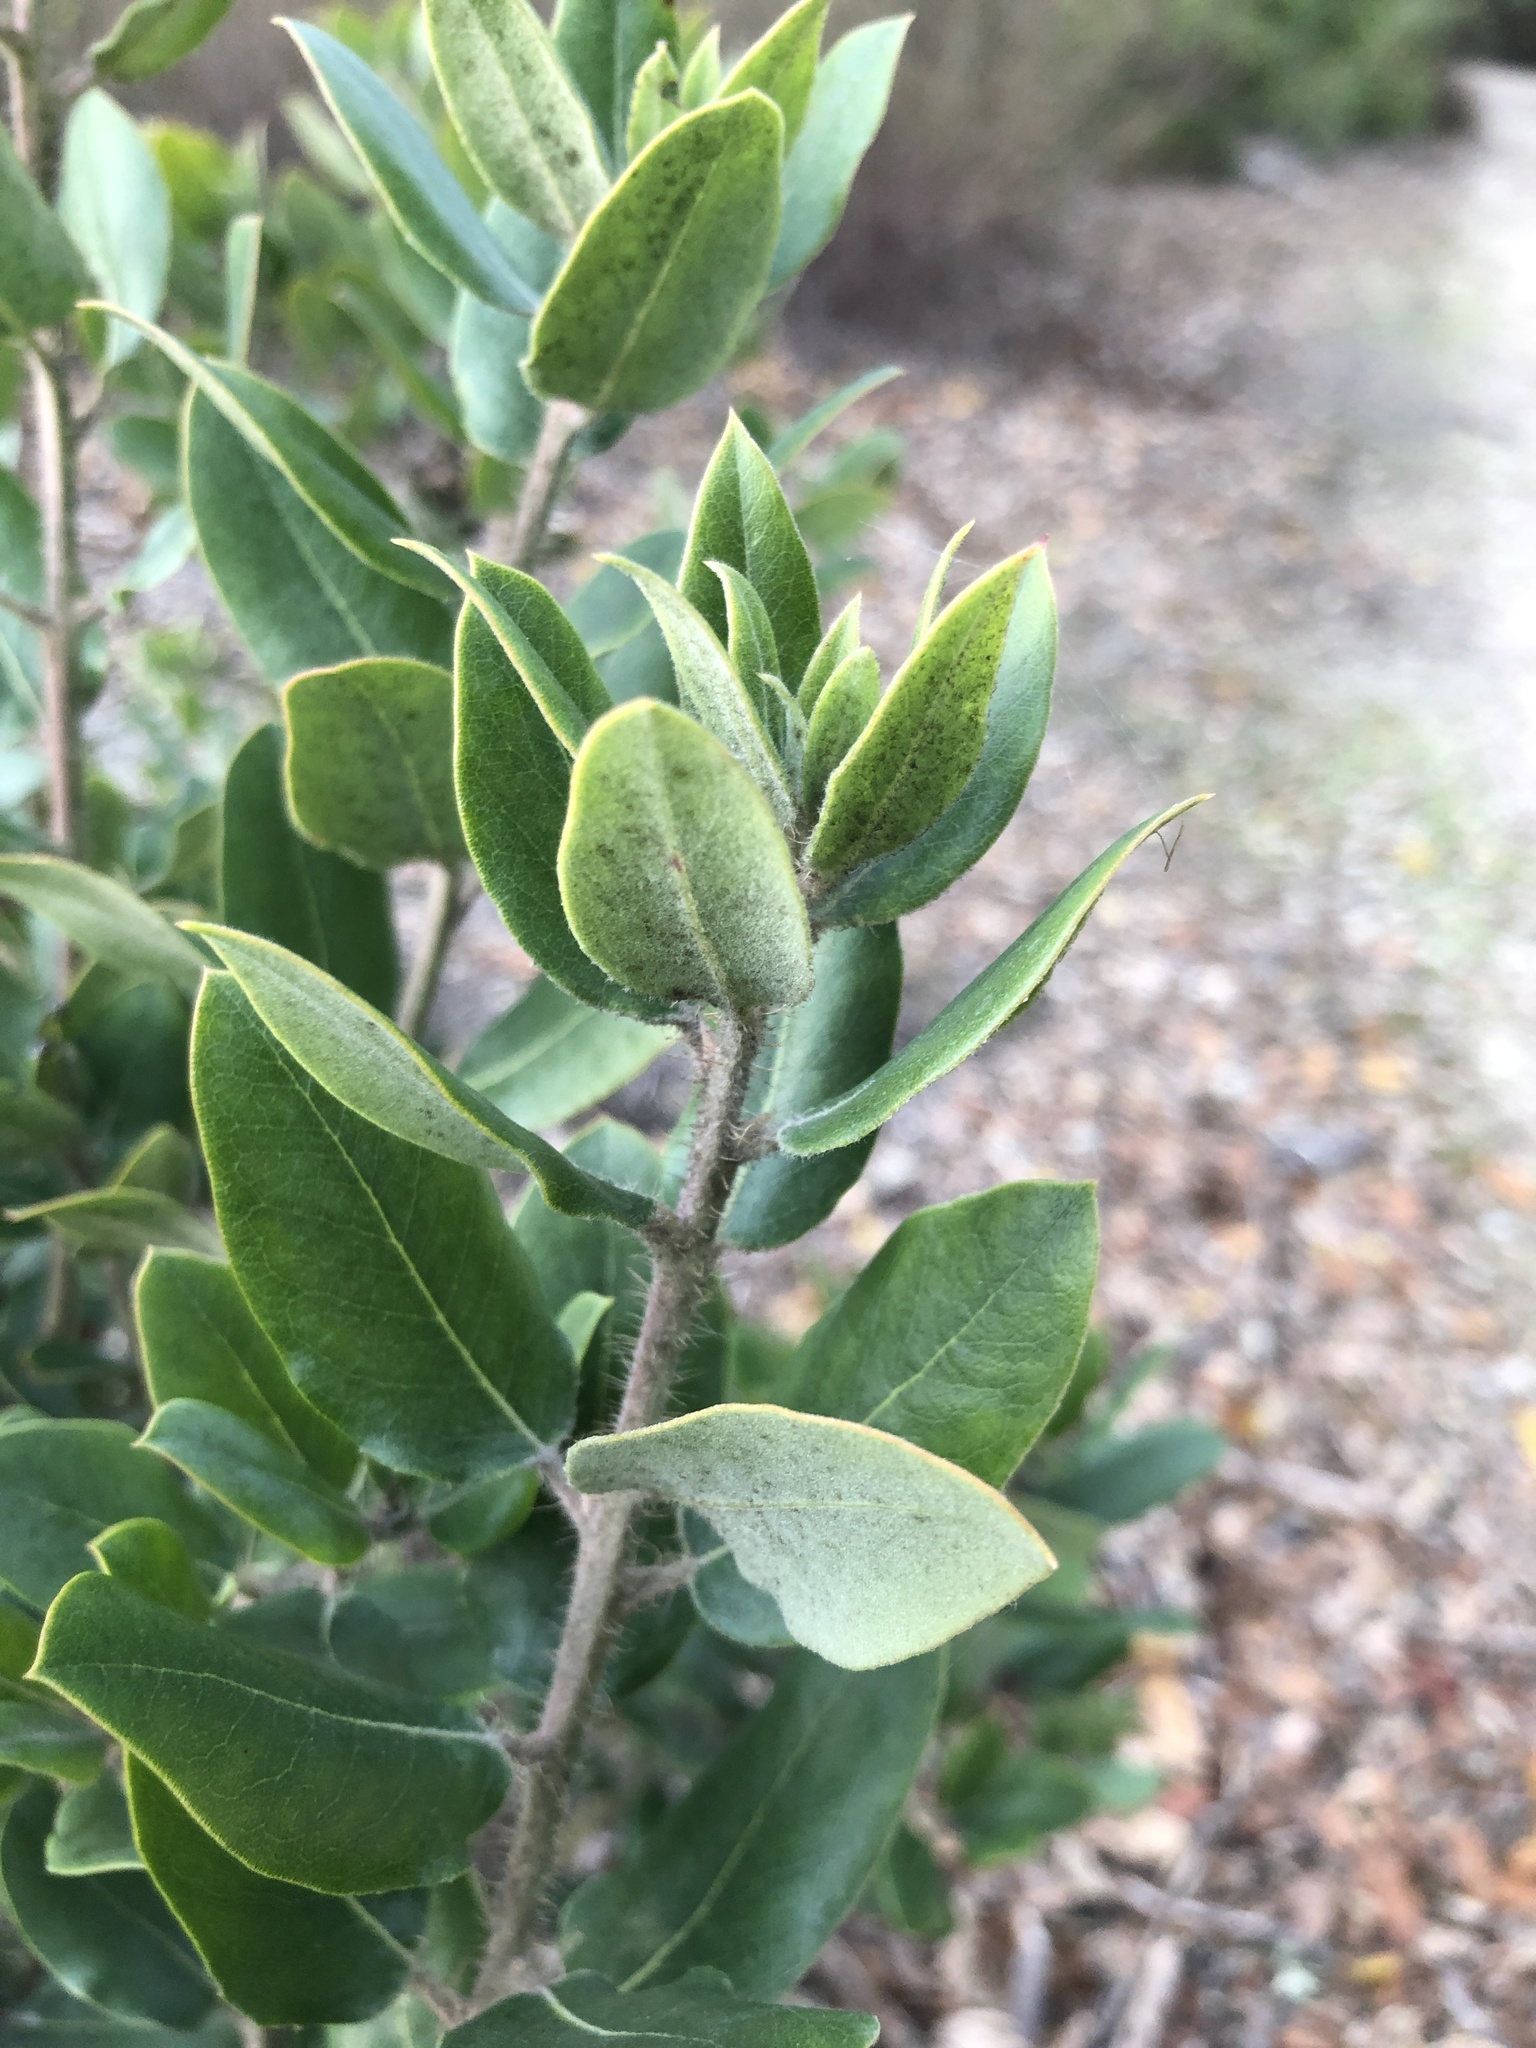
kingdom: Plantae
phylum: Tracheophyta
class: Magnoliopsida
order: Ericales
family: Ericaceae
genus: Arctostaphylos
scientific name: Arctostaphylos crustacea
